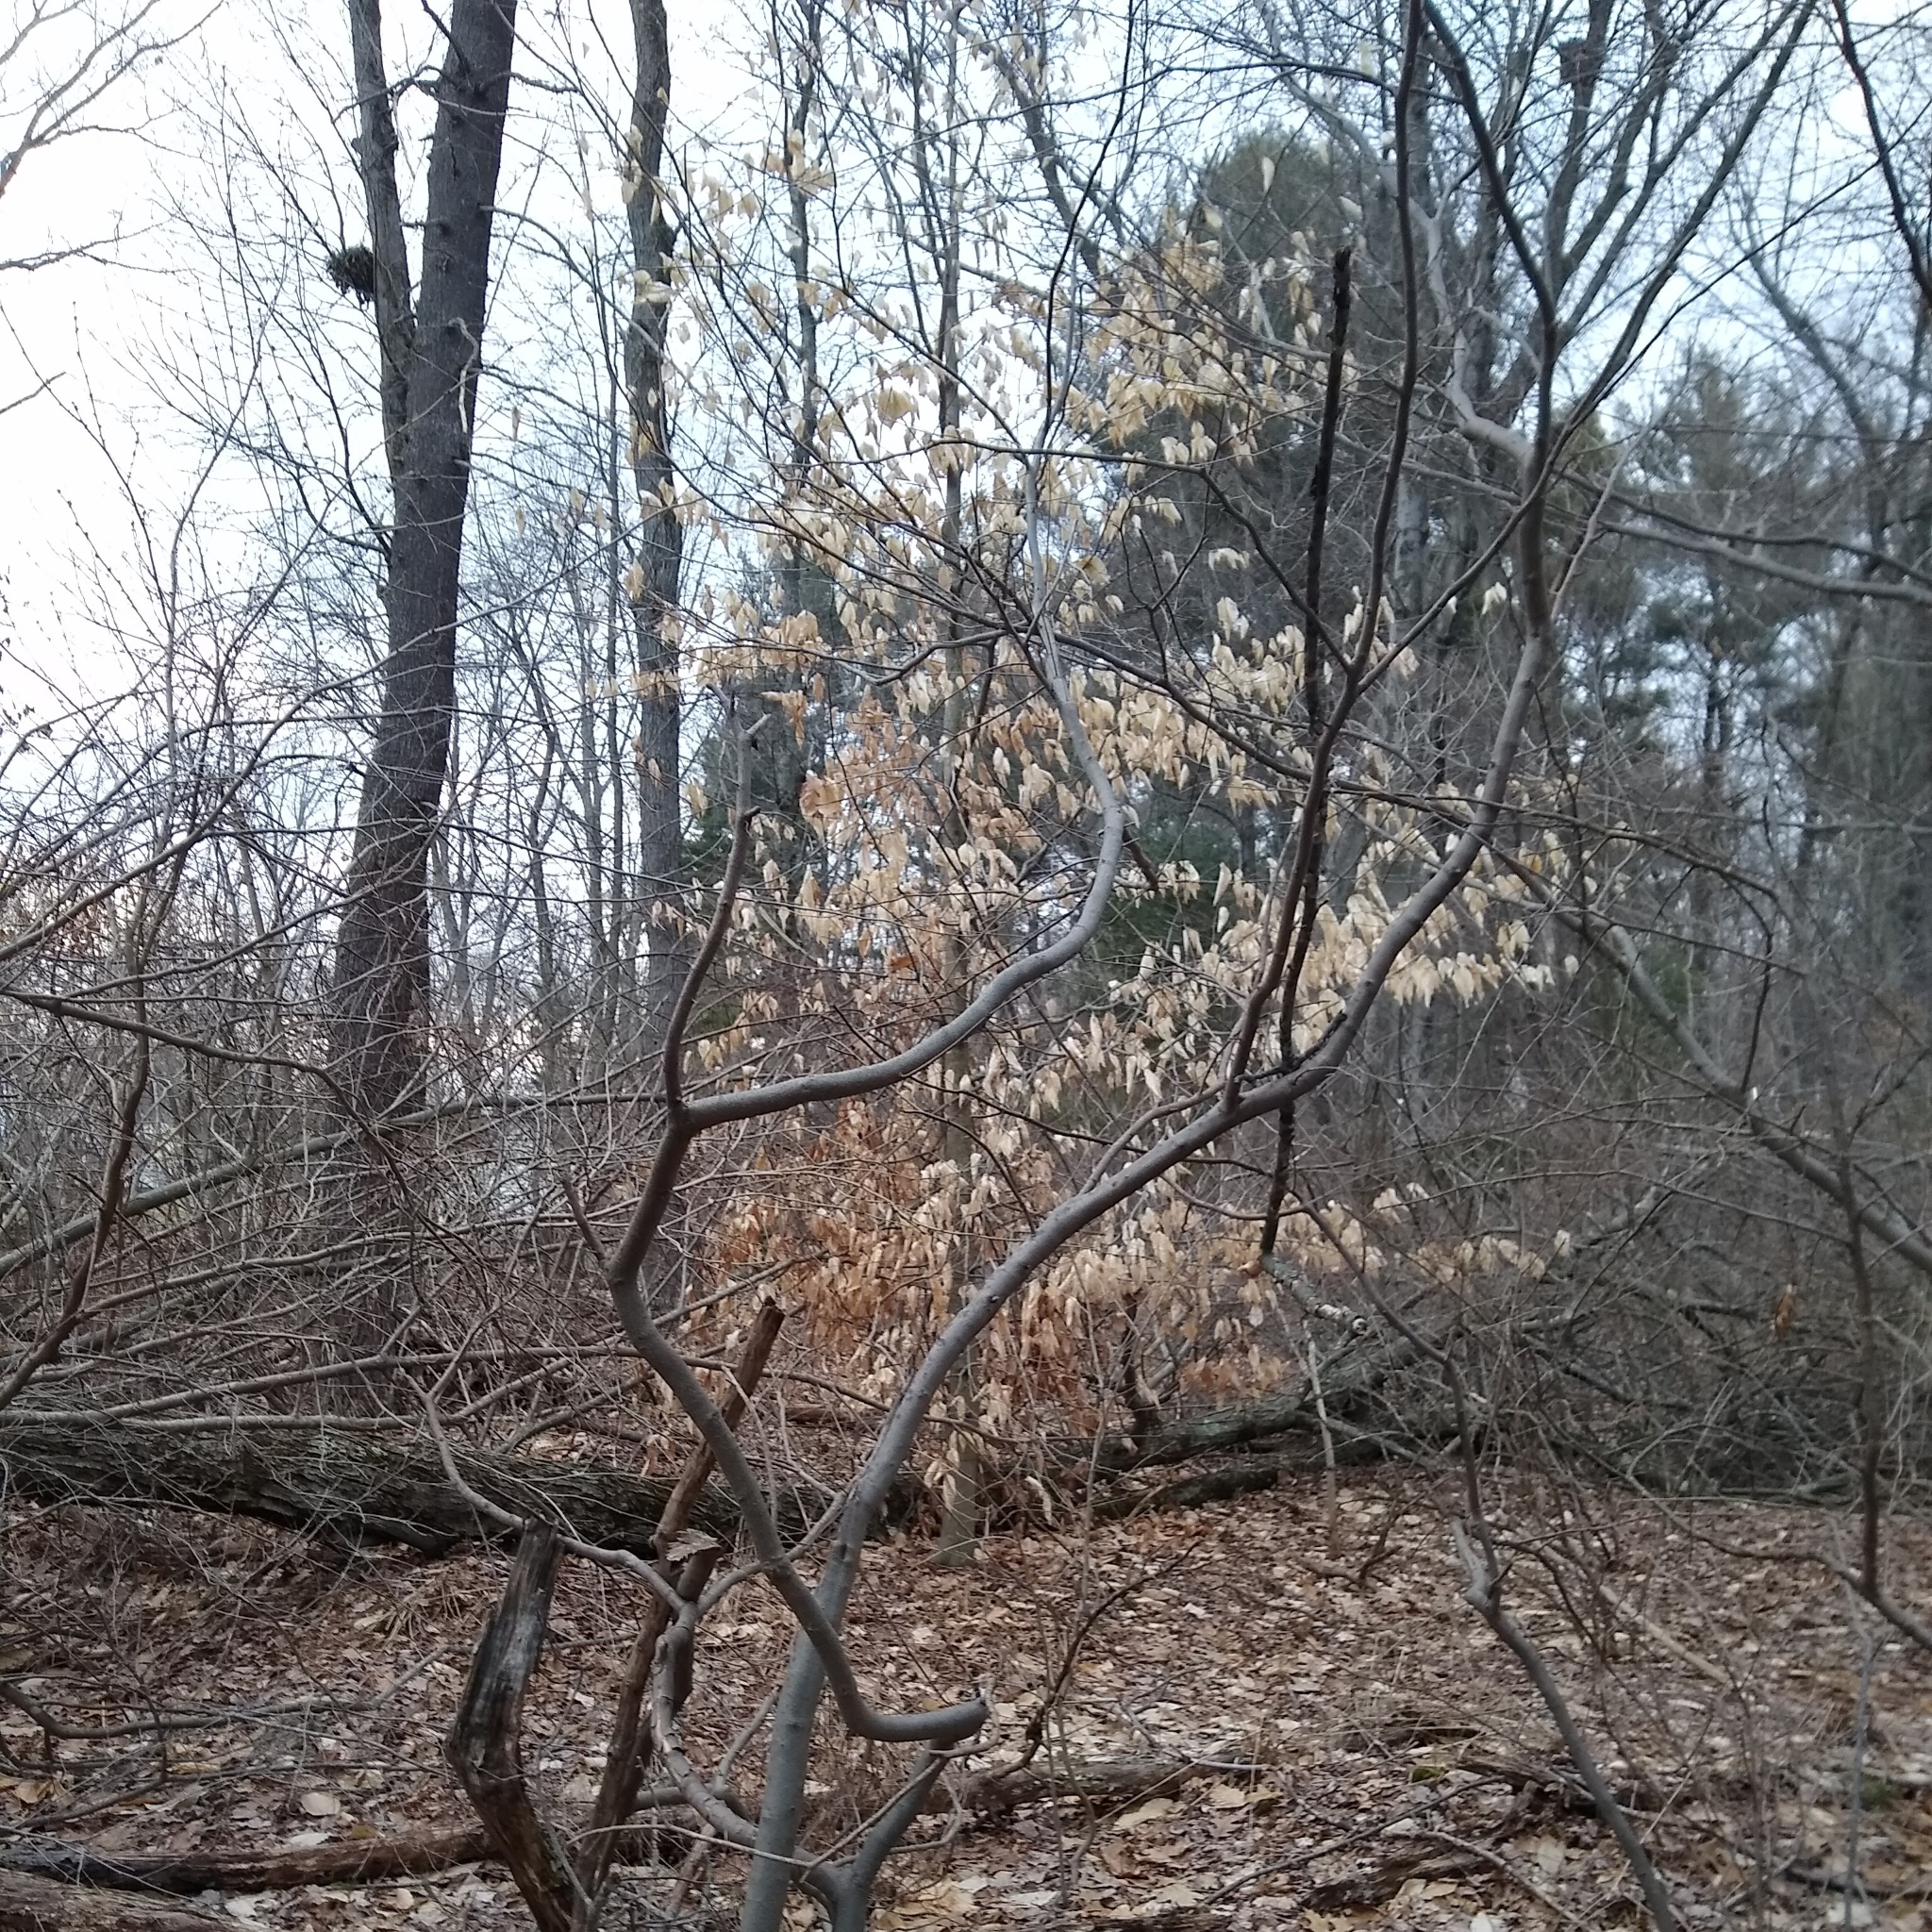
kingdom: Plantae
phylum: Tracheophyta
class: Magnoliopsida
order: Fagales
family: Fagaceae
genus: Fagus
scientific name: Fagus grandifolia
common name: American beech
